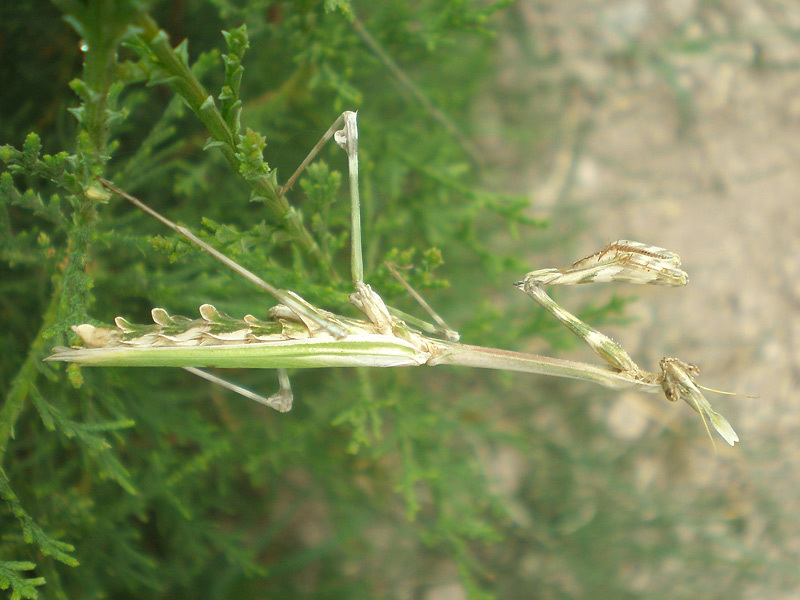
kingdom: Animalia
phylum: Arthropoda
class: Insecta
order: Mantodea
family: Empusidae
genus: Empusa
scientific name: Empusa pennata
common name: Conehead mantis
